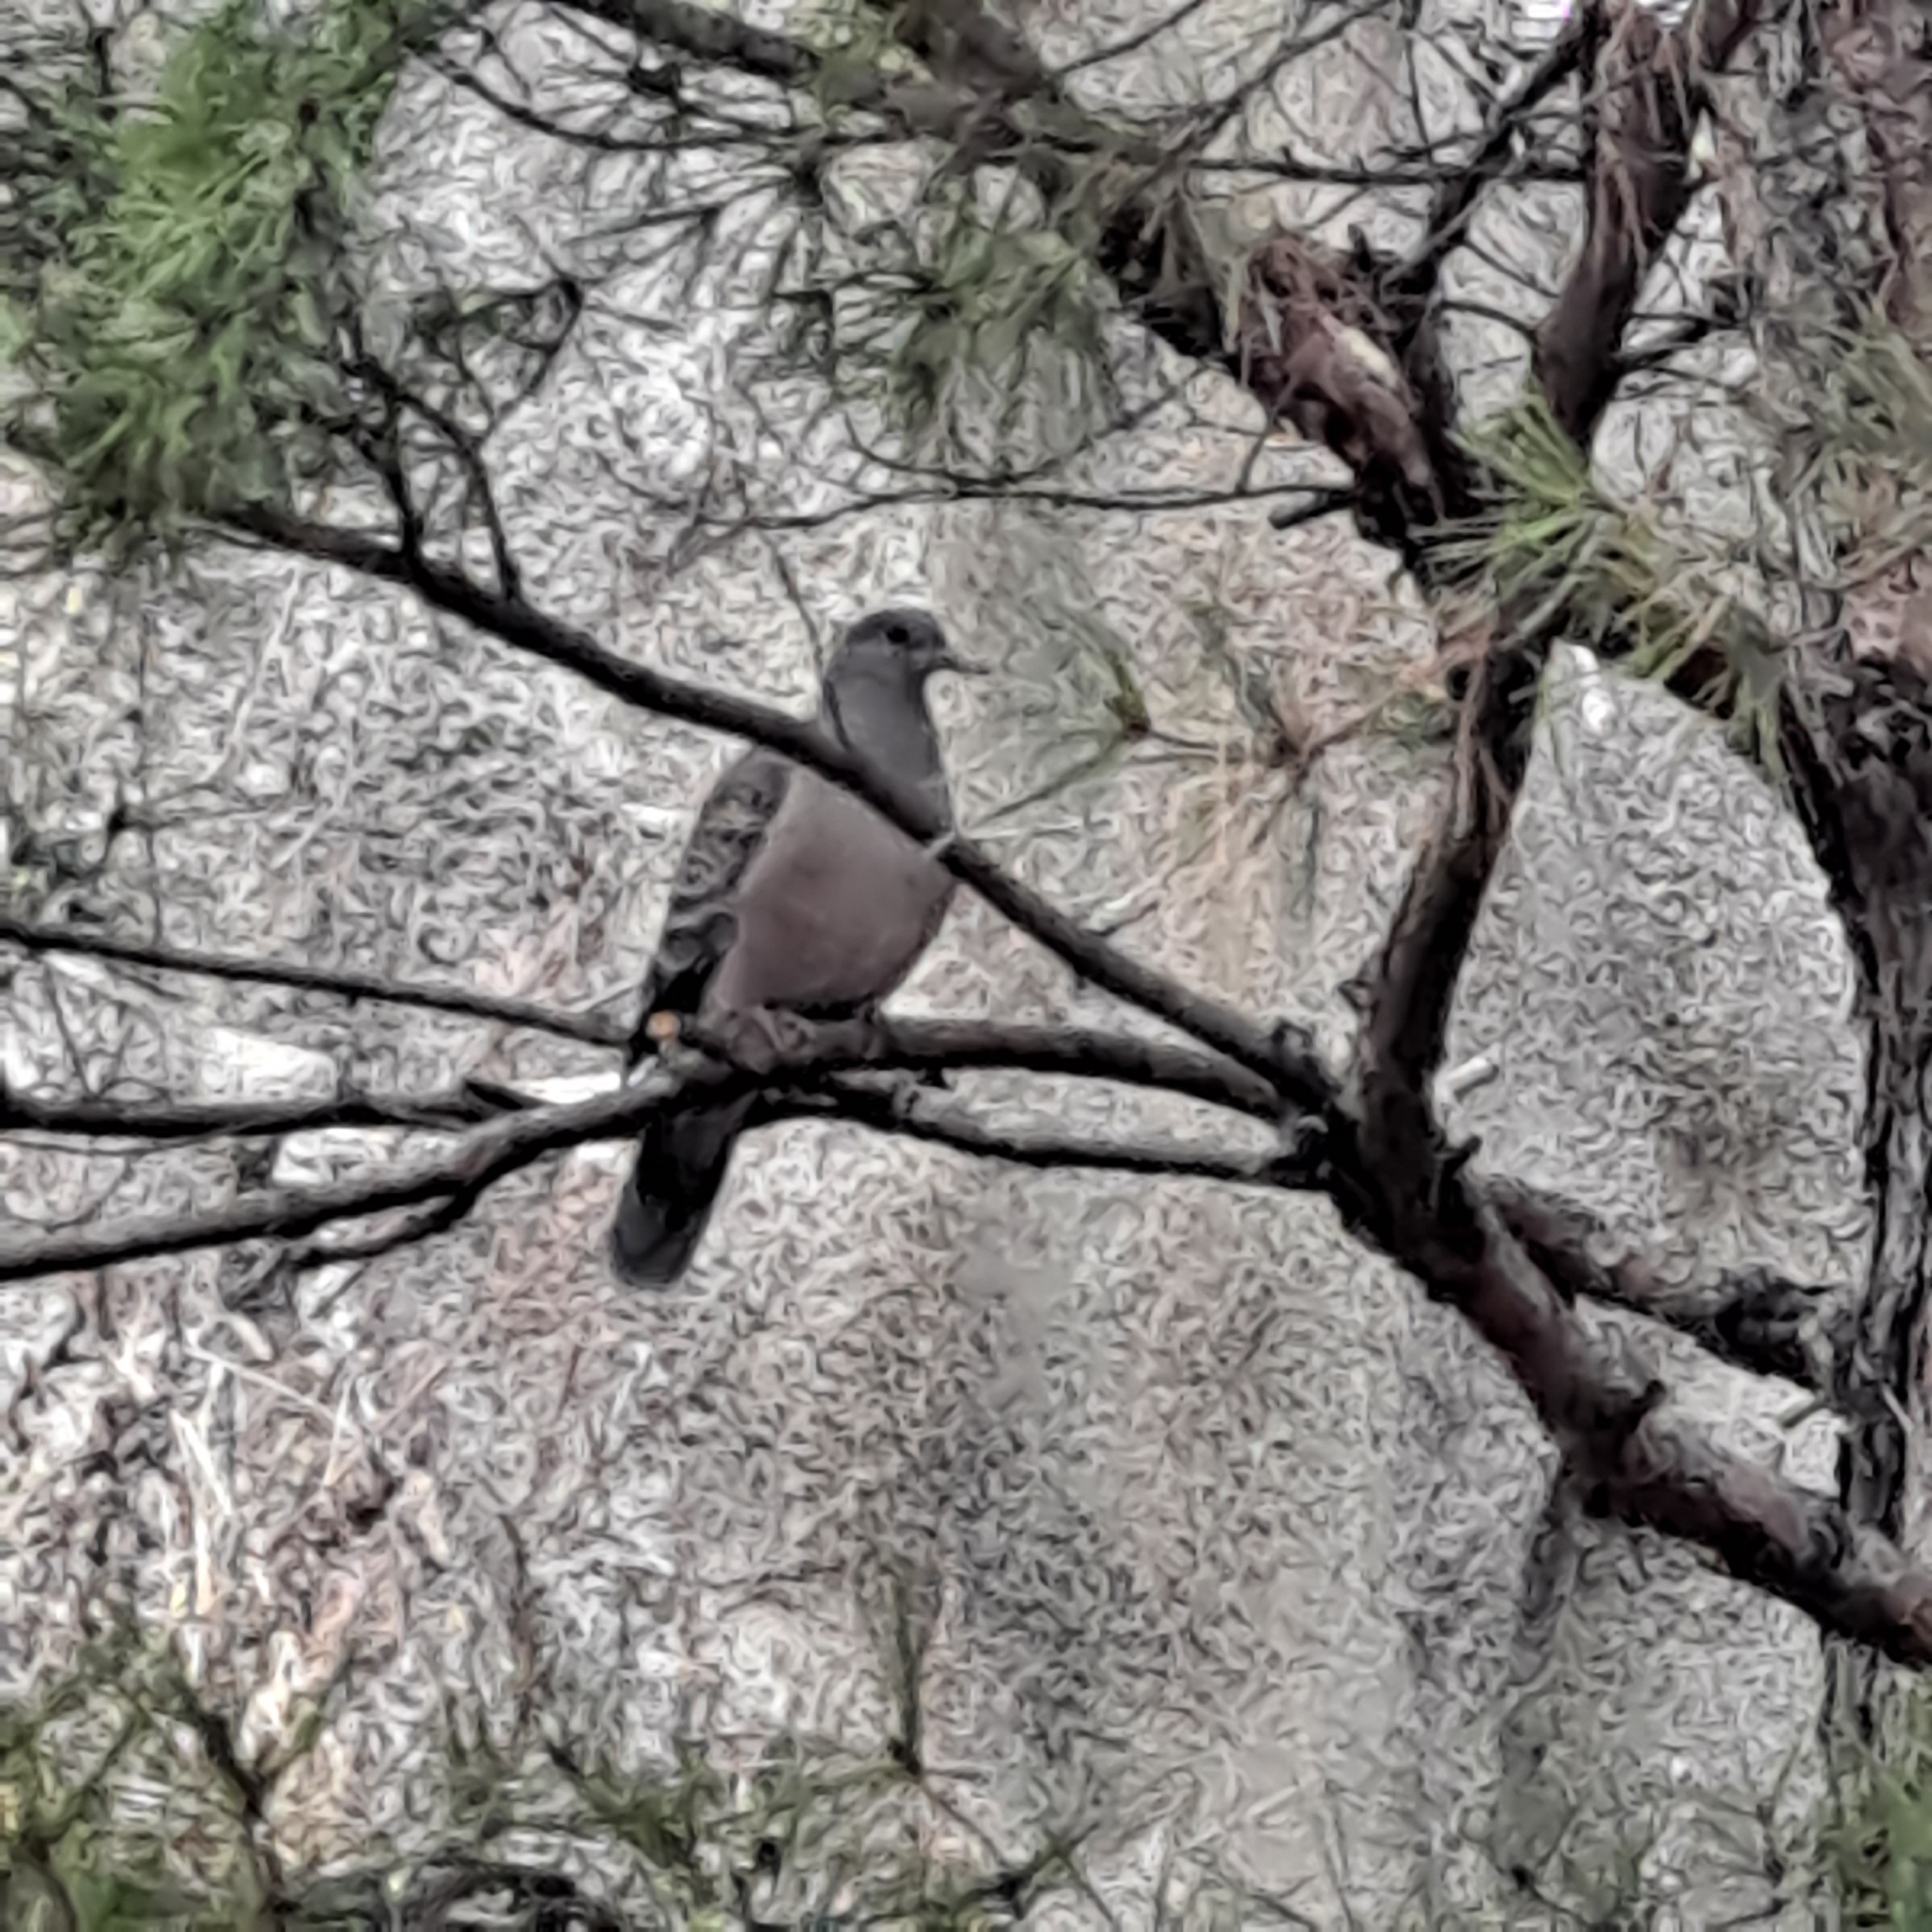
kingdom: Animalia
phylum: Chordata
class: Aves
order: Columbiformes
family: Columbidae
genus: Streptopelia
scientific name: Streptopelia orientalis
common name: Oriental turtle dove
